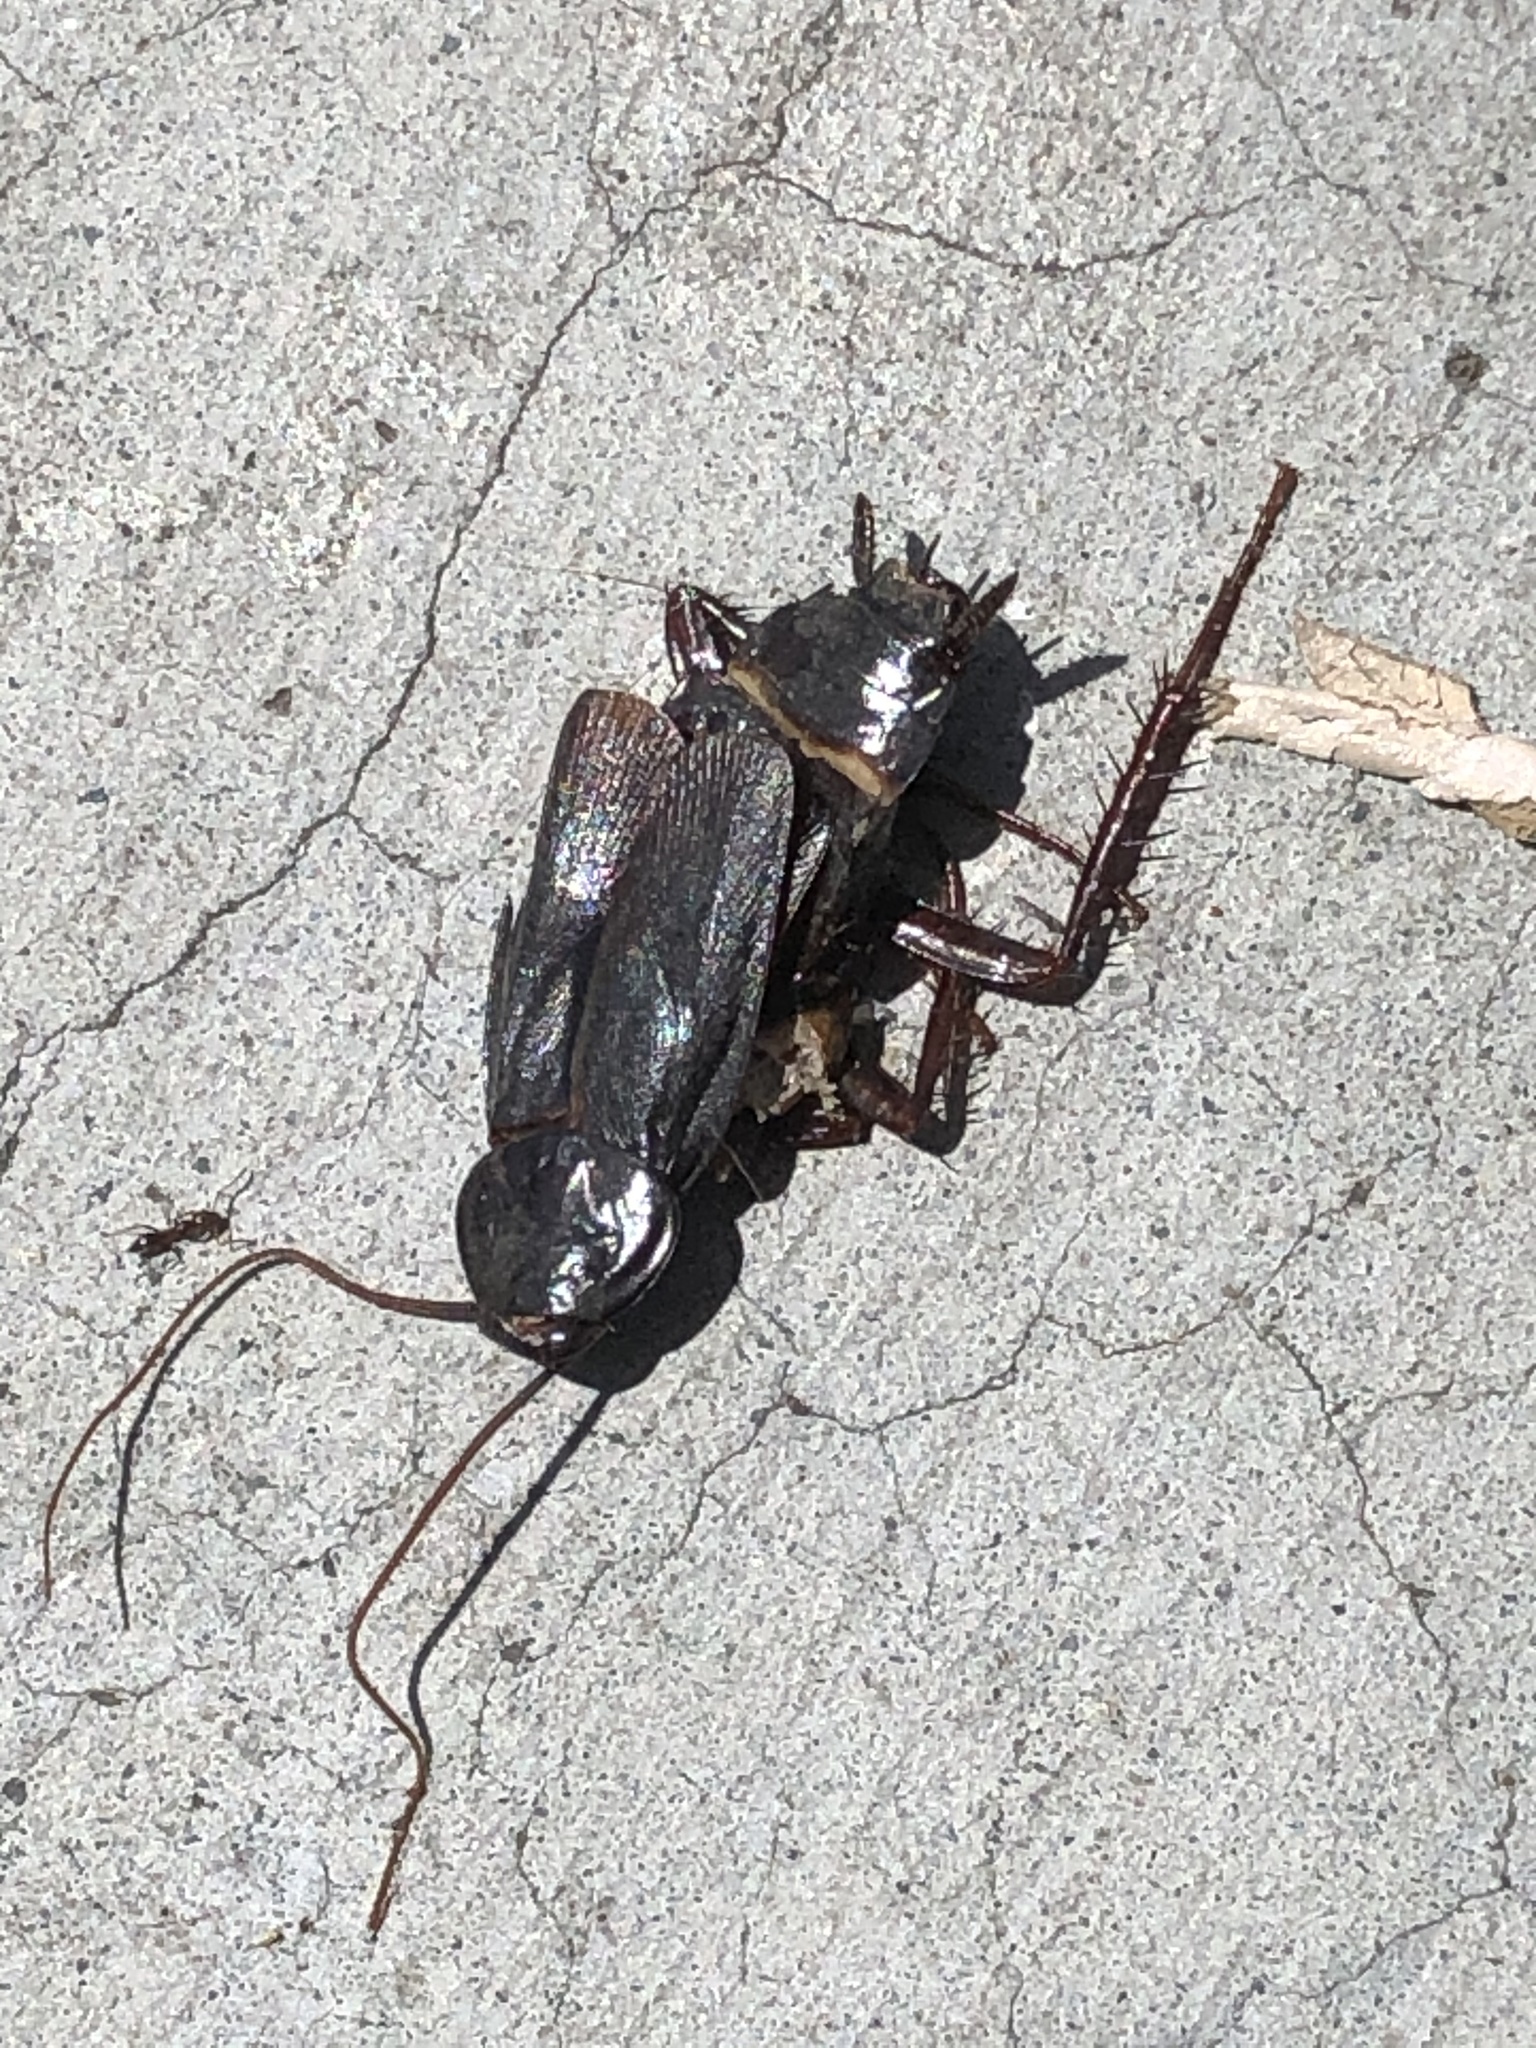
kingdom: Animalia
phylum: Arthropoda
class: Insecta
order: Blattodea
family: Blattidae
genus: Blatta
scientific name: Blatta orientalis
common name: Oriental cockroach
